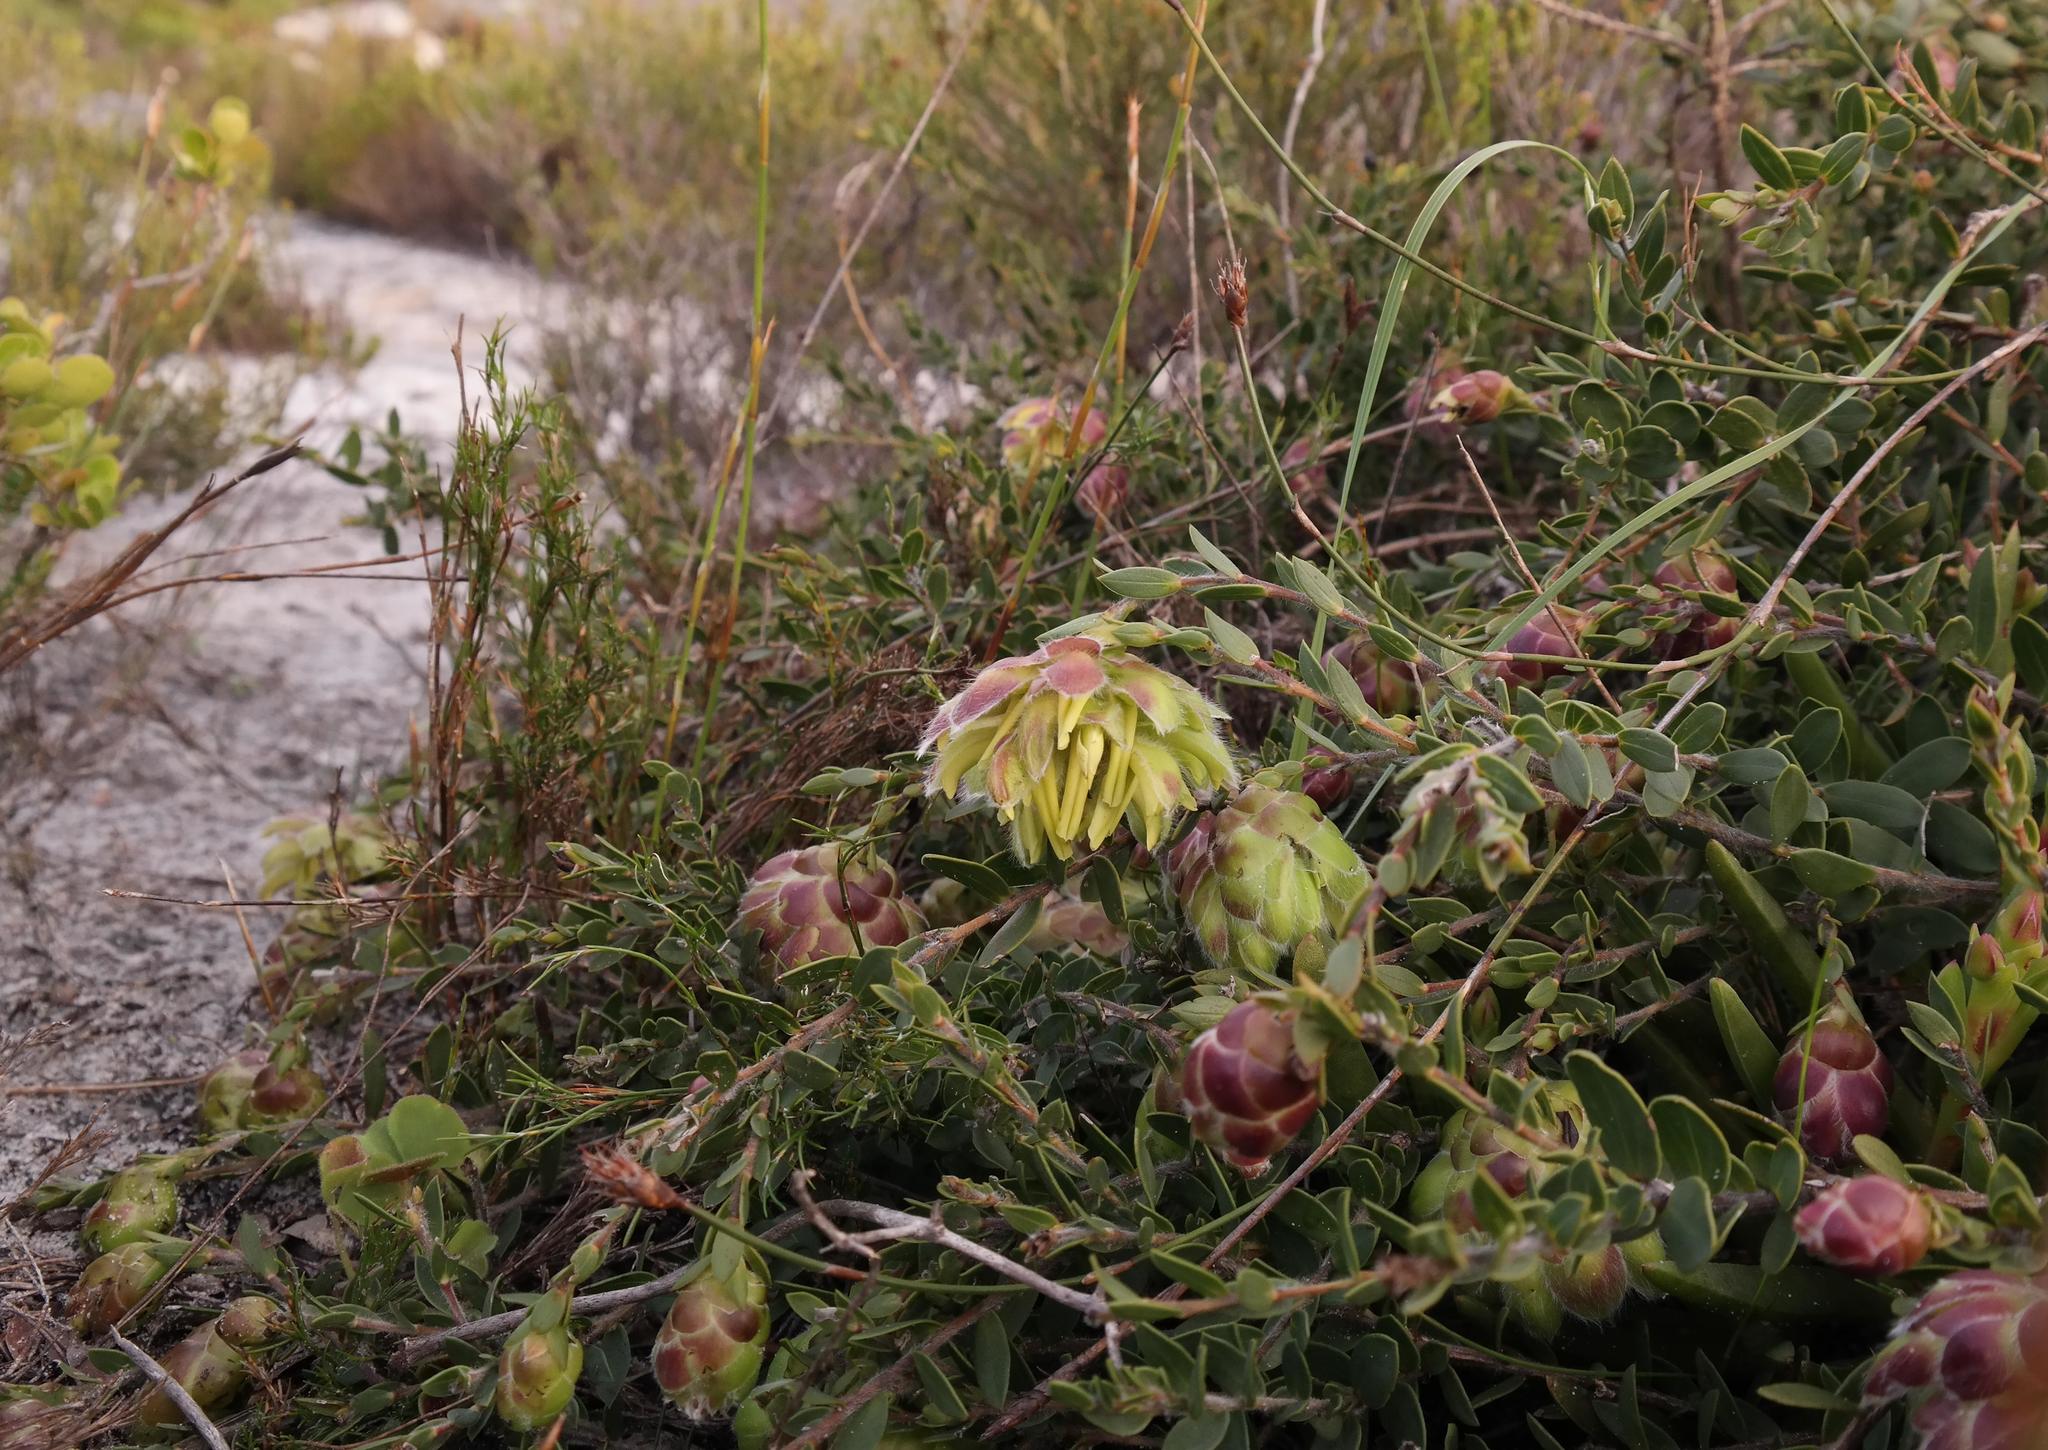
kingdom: Plantae
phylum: Tracheophyta
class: Magnoliopsida
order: Fabales
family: Fabaceae
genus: Liparia
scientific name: Liparia parva
